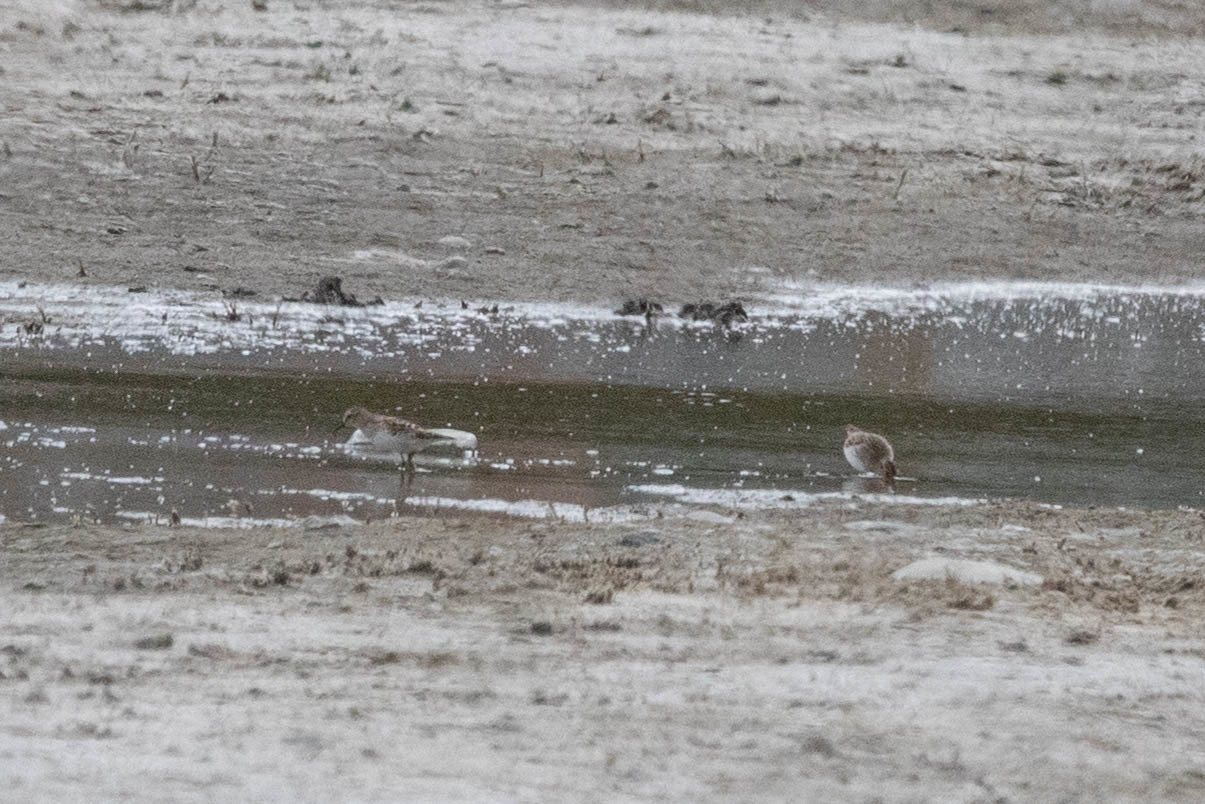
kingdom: Animalia
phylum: Chordata
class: Aves
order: Charadriiformes
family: Scolopacidae
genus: Calidris
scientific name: Calidris minutilla
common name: Least sandpiper
